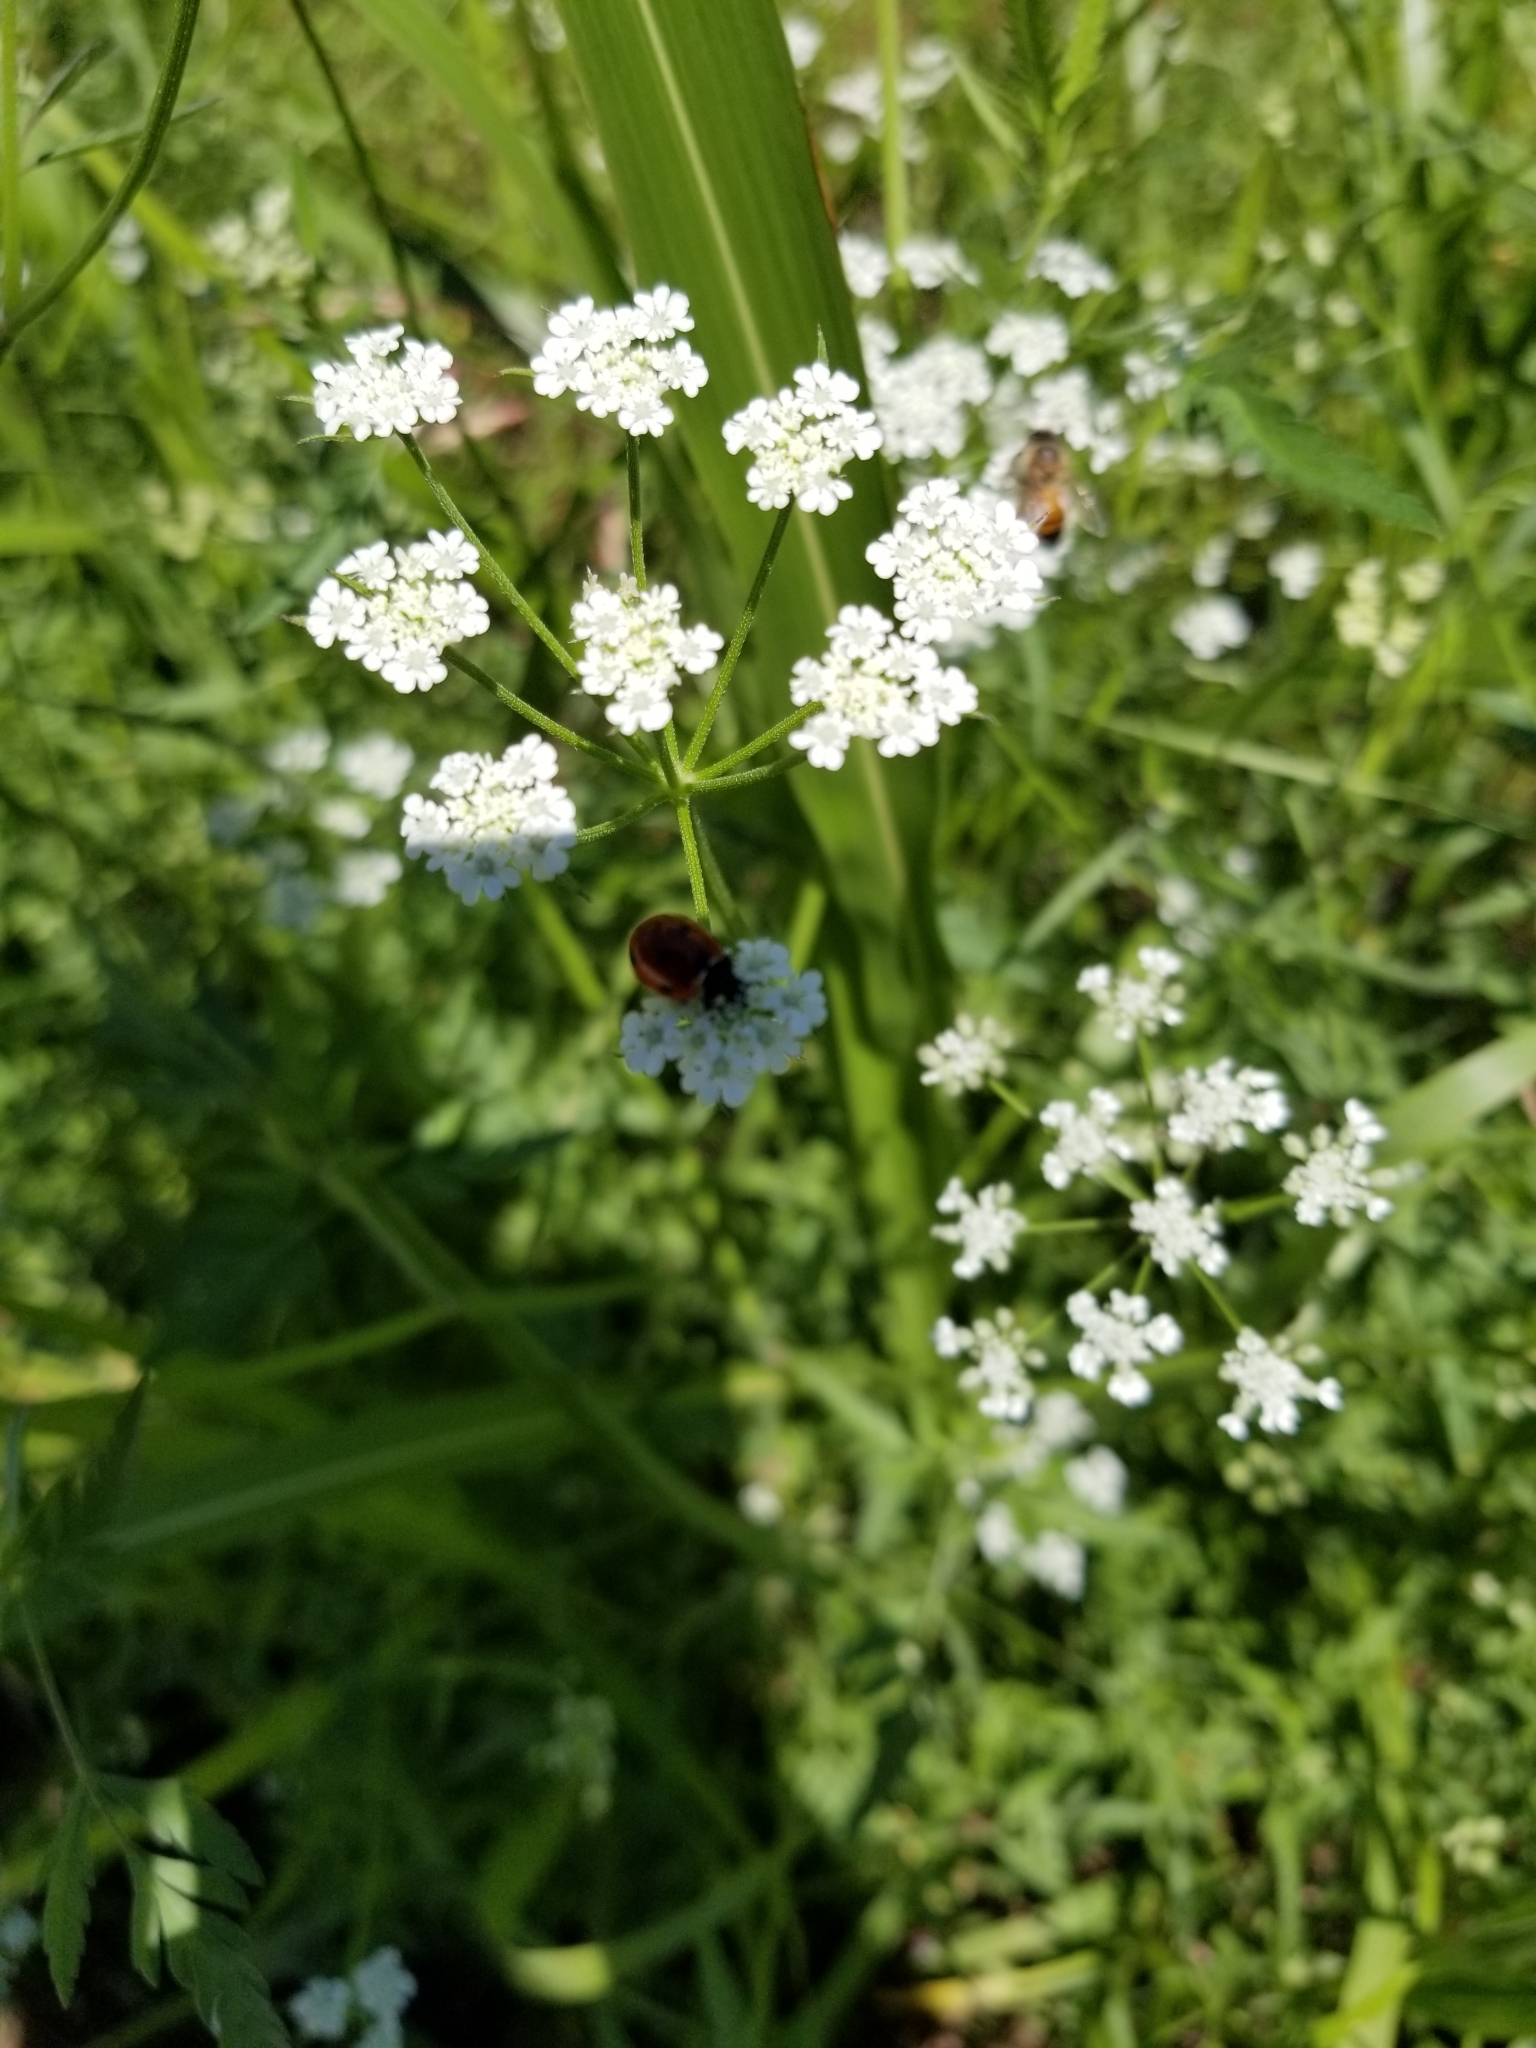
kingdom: Plantae
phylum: Tracheophyta
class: Magnoliopsida
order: Apiales
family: Apiaceae
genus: Torilis
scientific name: Torilis arvensis
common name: Spreading hedge-parsley
